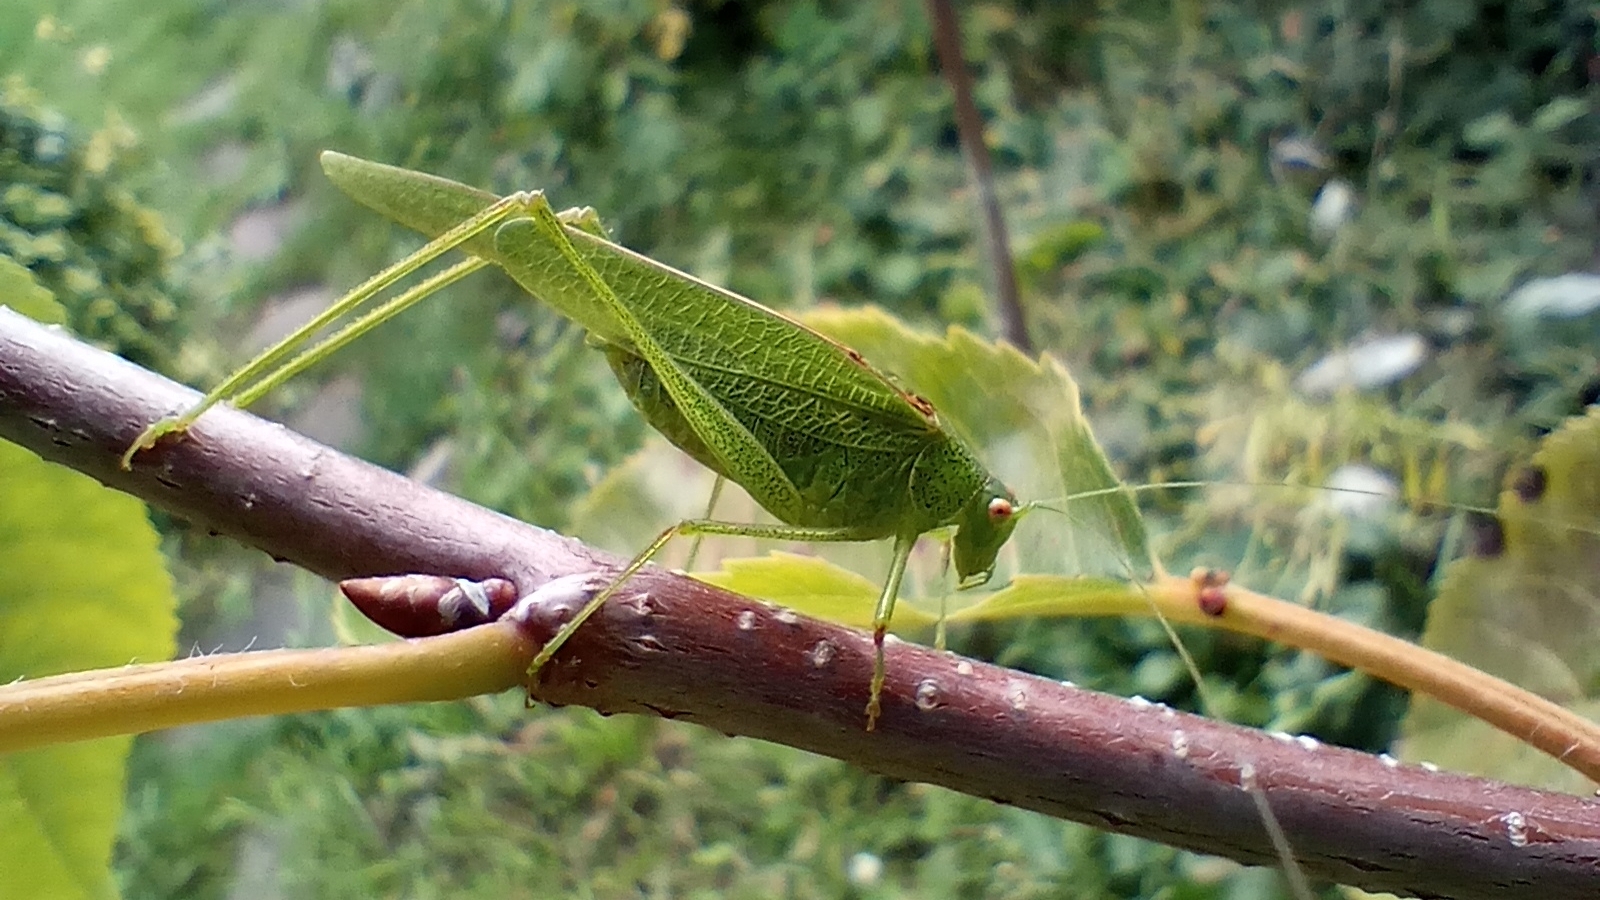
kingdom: Animalia
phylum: Arthropoda
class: Insecta
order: Orthoptera
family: Tettigoniidae
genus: Phaneroptera
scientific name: Phaneroptera nana
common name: Southern sickle bush-cricket
